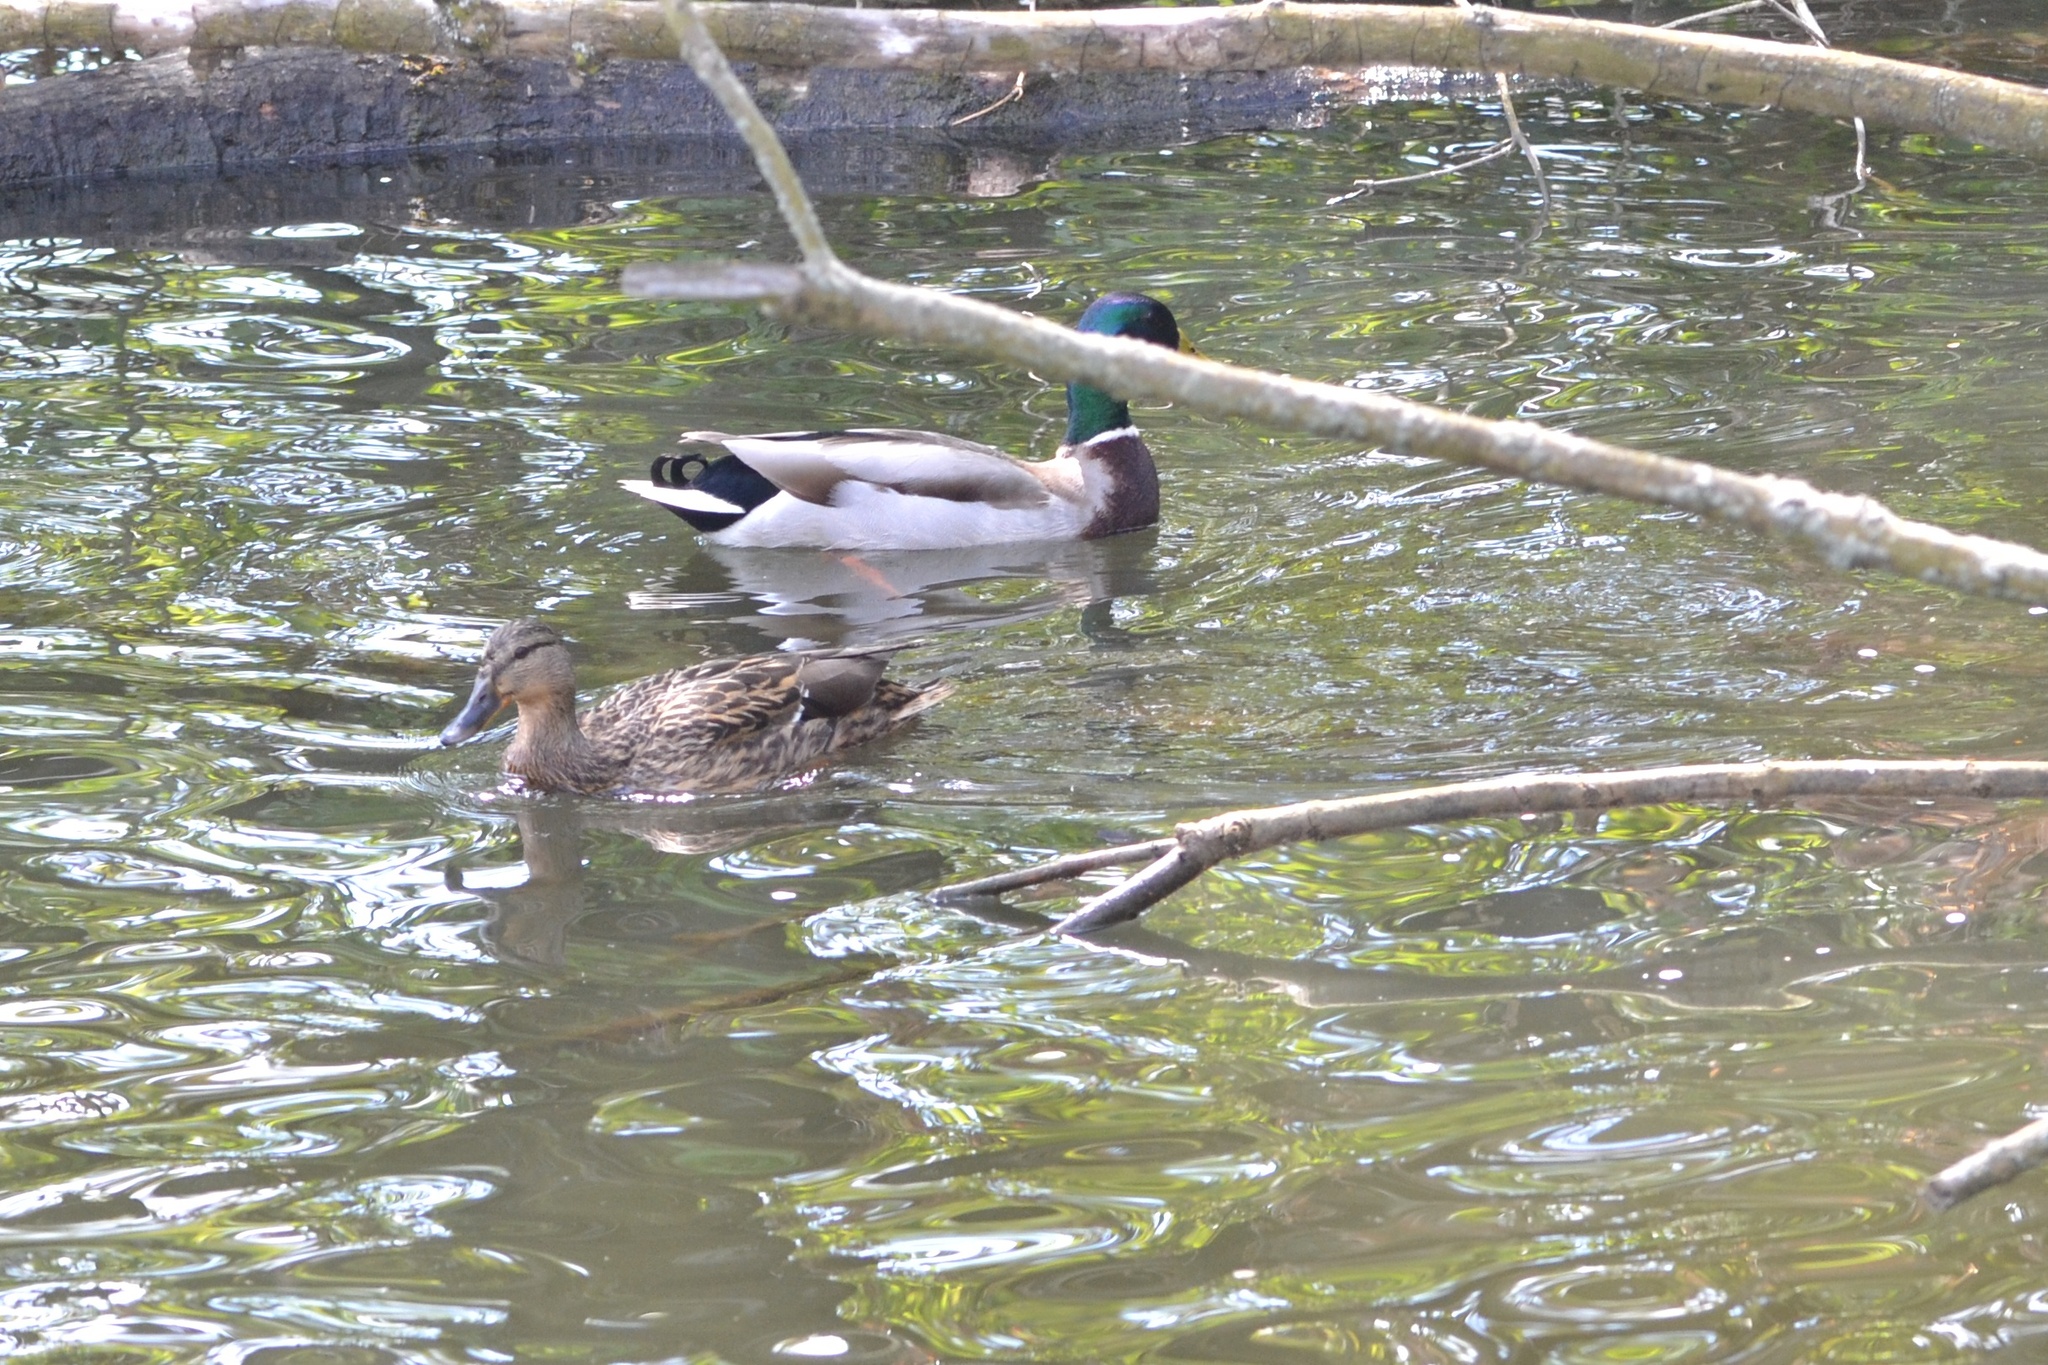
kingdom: Animalia
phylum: Chordata
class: Aves
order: Anseriformes
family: Anatidae
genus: Anas
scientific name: Anas platyrhynchos
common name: Mallard
